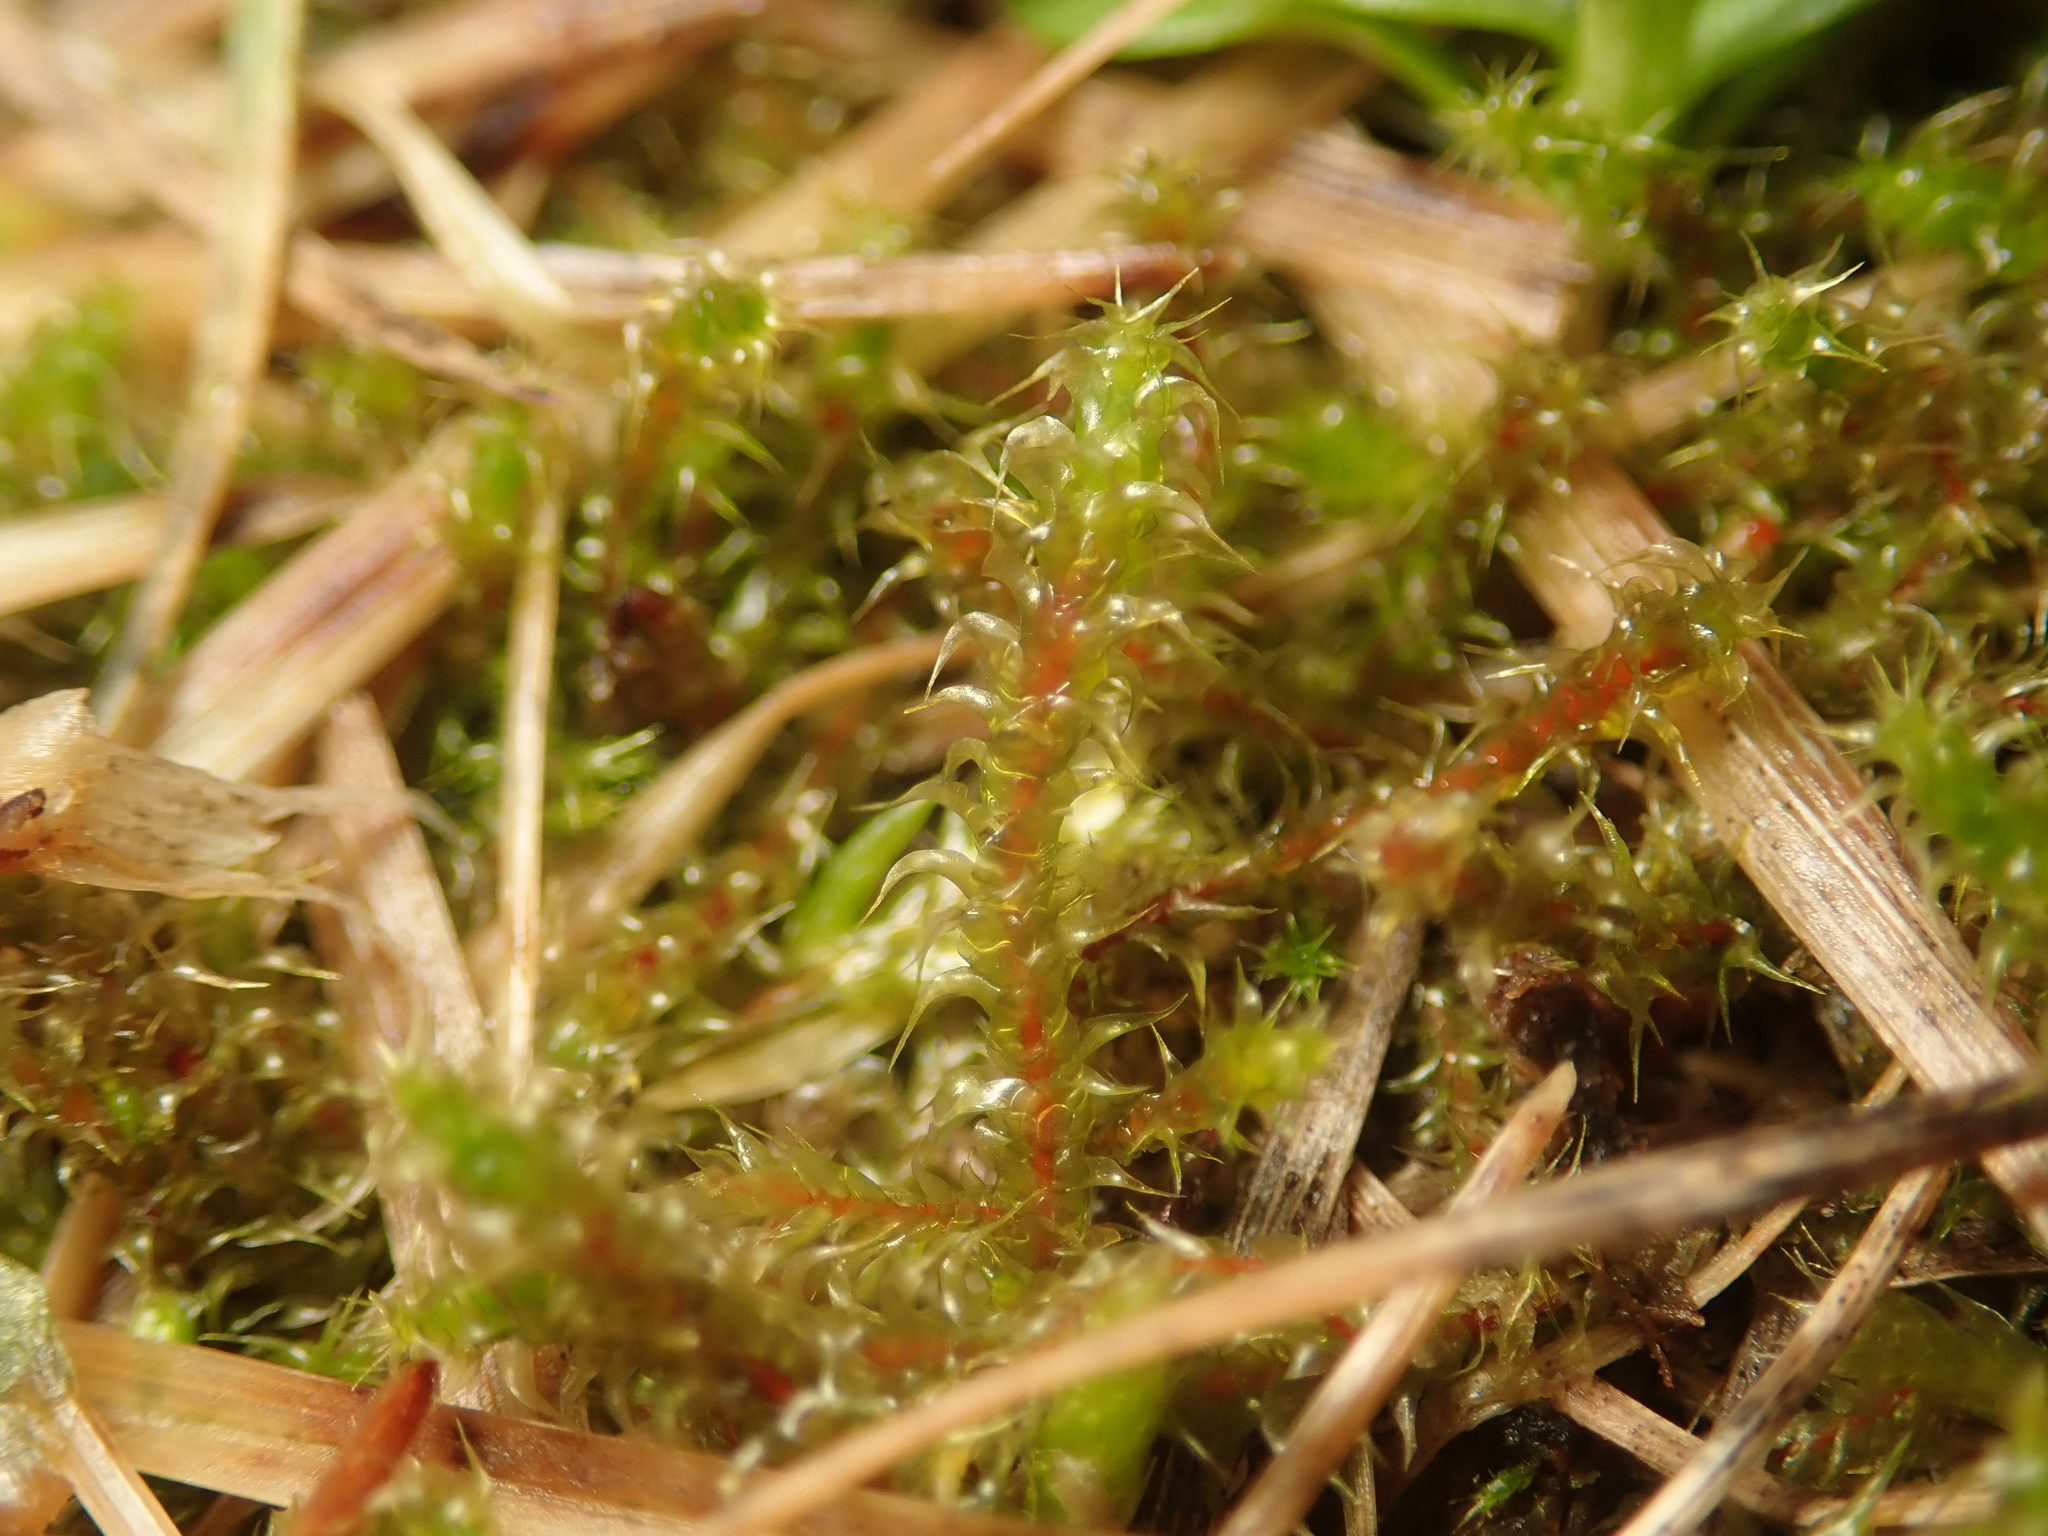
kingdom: Plantae
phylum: Bryophyta
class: Bryopsida
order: Hypnales
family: Hylocomiaceae
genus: Rhytidiadelphus
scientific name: Rhytidiadelphus squarrosus
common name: Springy turf-moss
